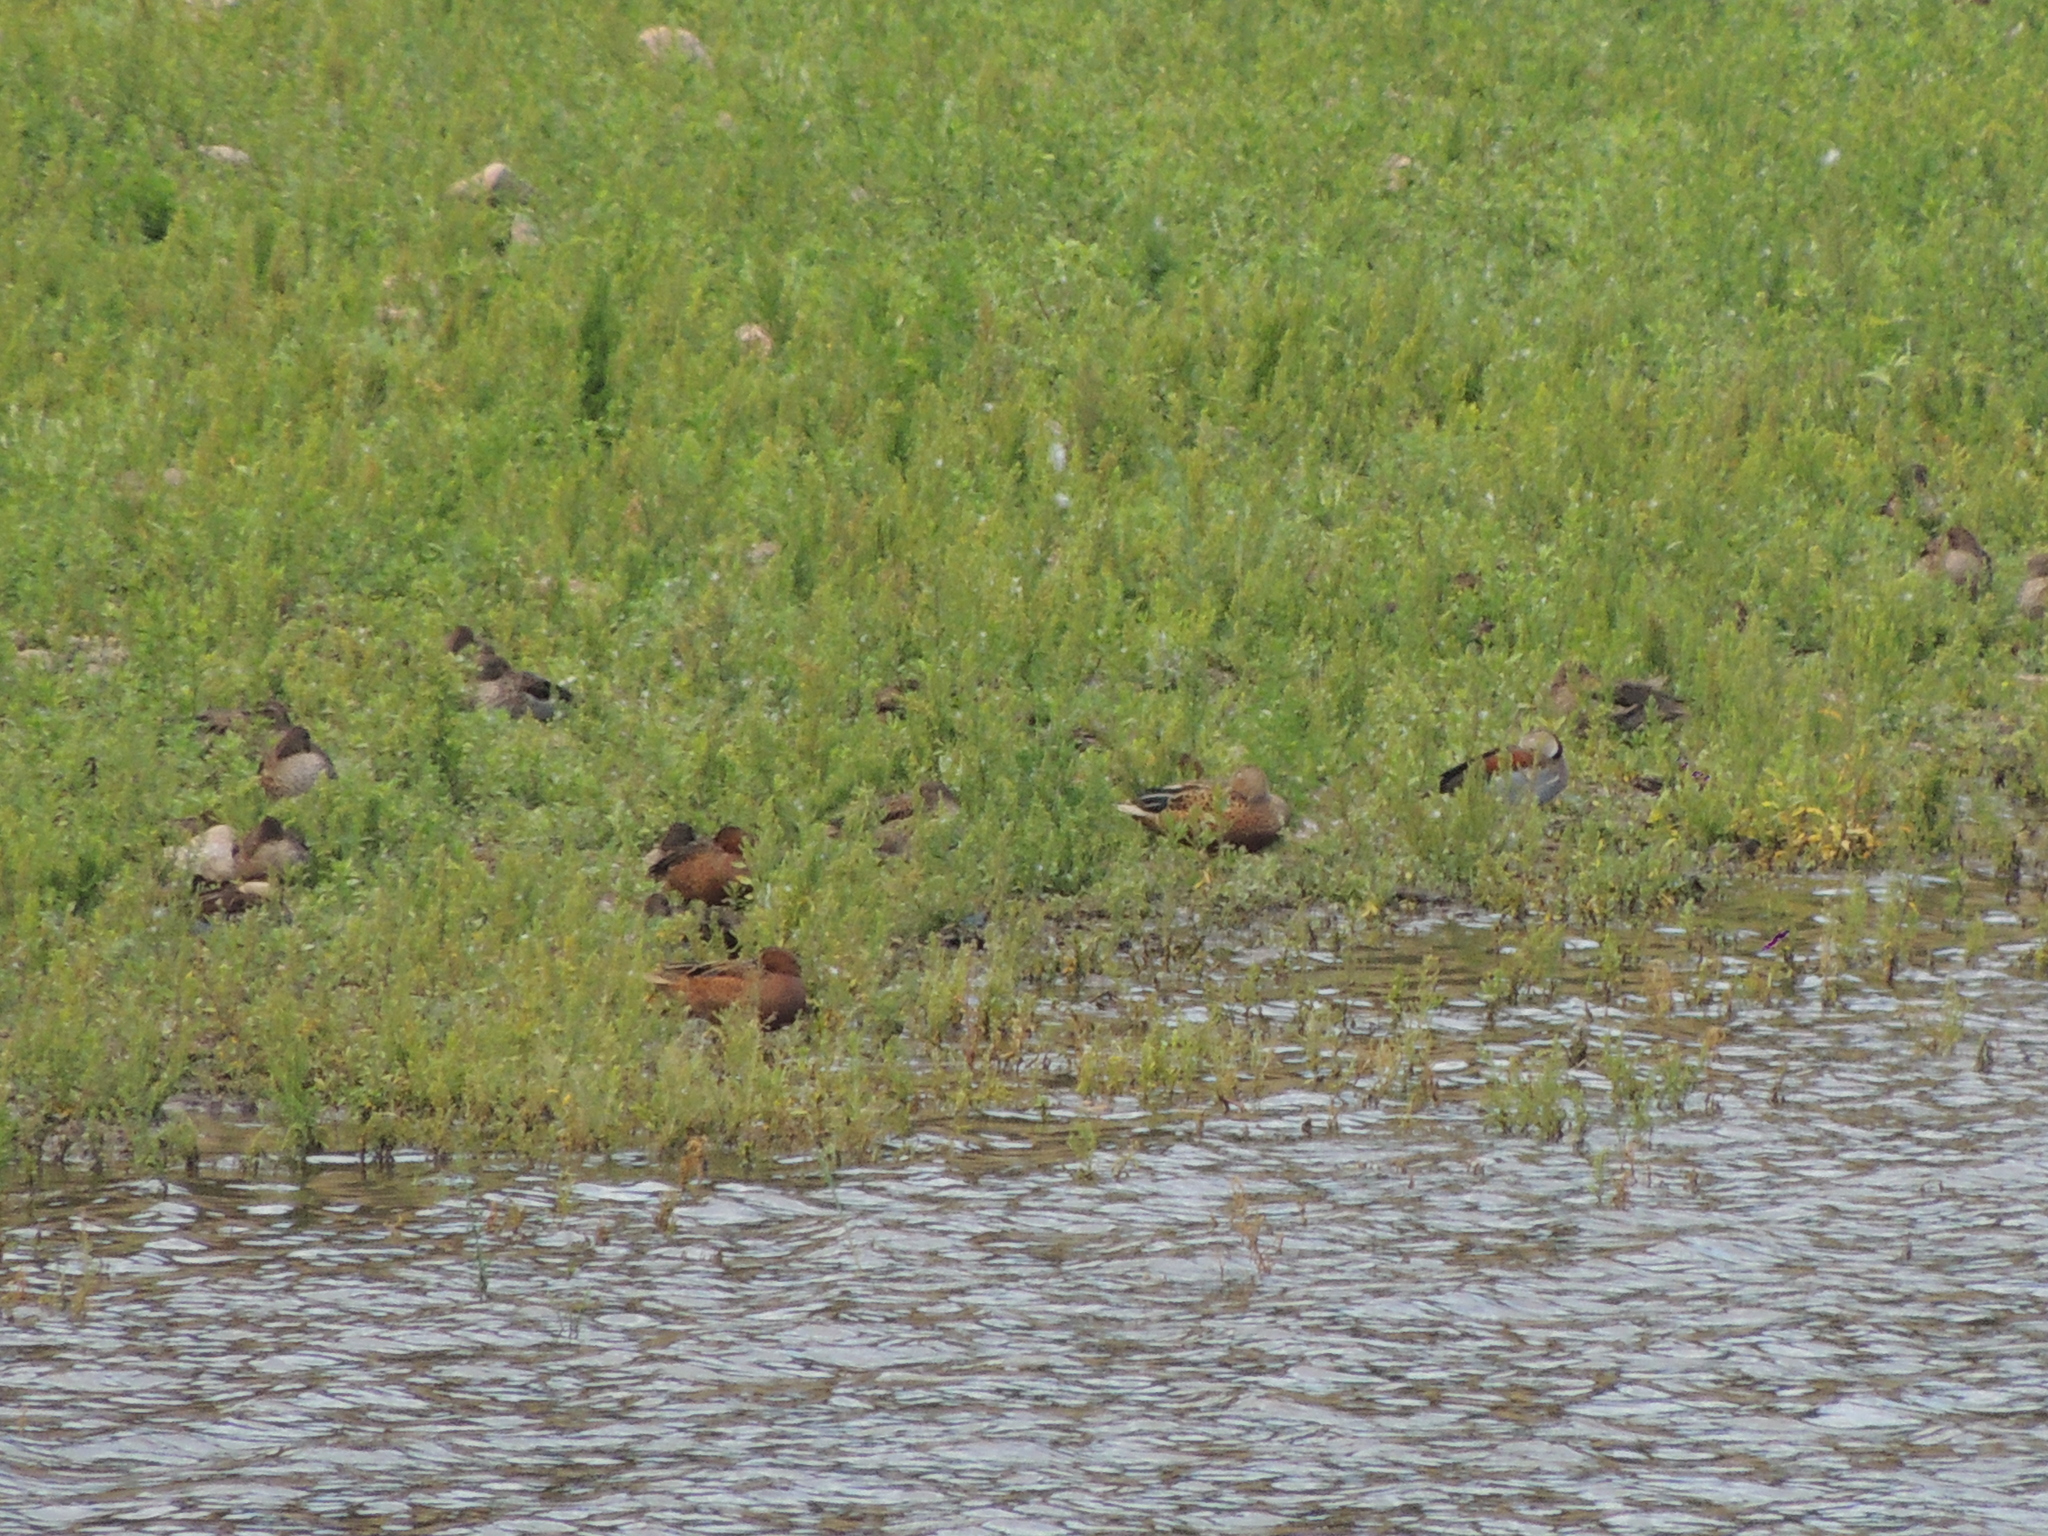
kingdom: Animalia
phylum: Chordata
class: Aves
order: Anseriformes
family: Anatidae
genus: Spatula
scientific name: Spatula platalea
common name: Red shoveler
